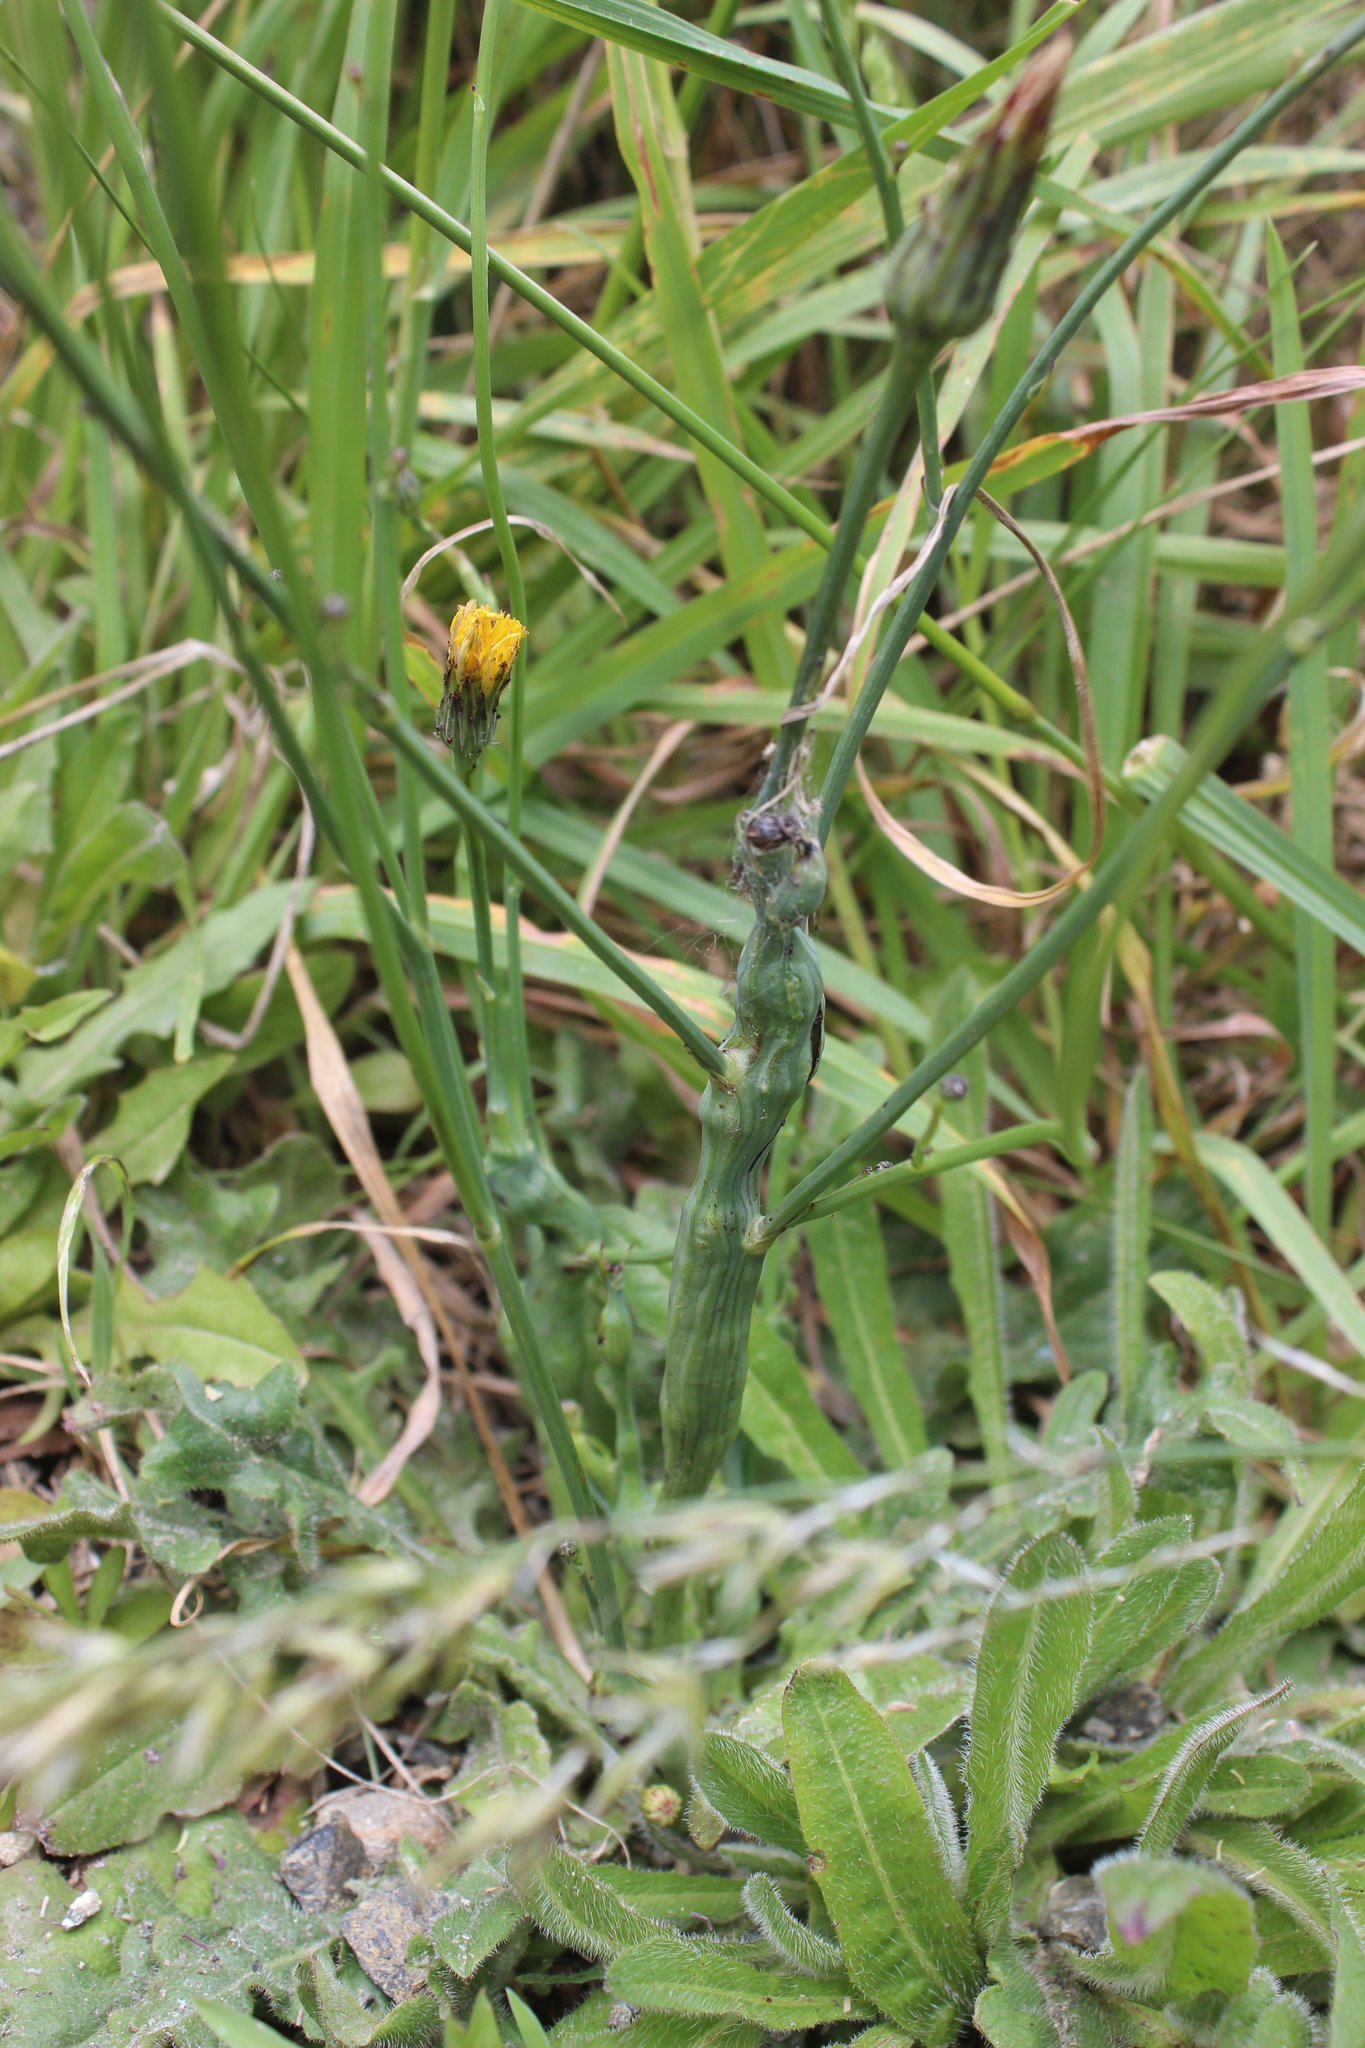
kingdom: Plantae
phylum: Tracheophyta
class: Magnoliopsida
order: Asterales
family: Asteraceae
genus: Hypochaeris
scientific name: Hypochaeris radicata
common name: Flatweed
